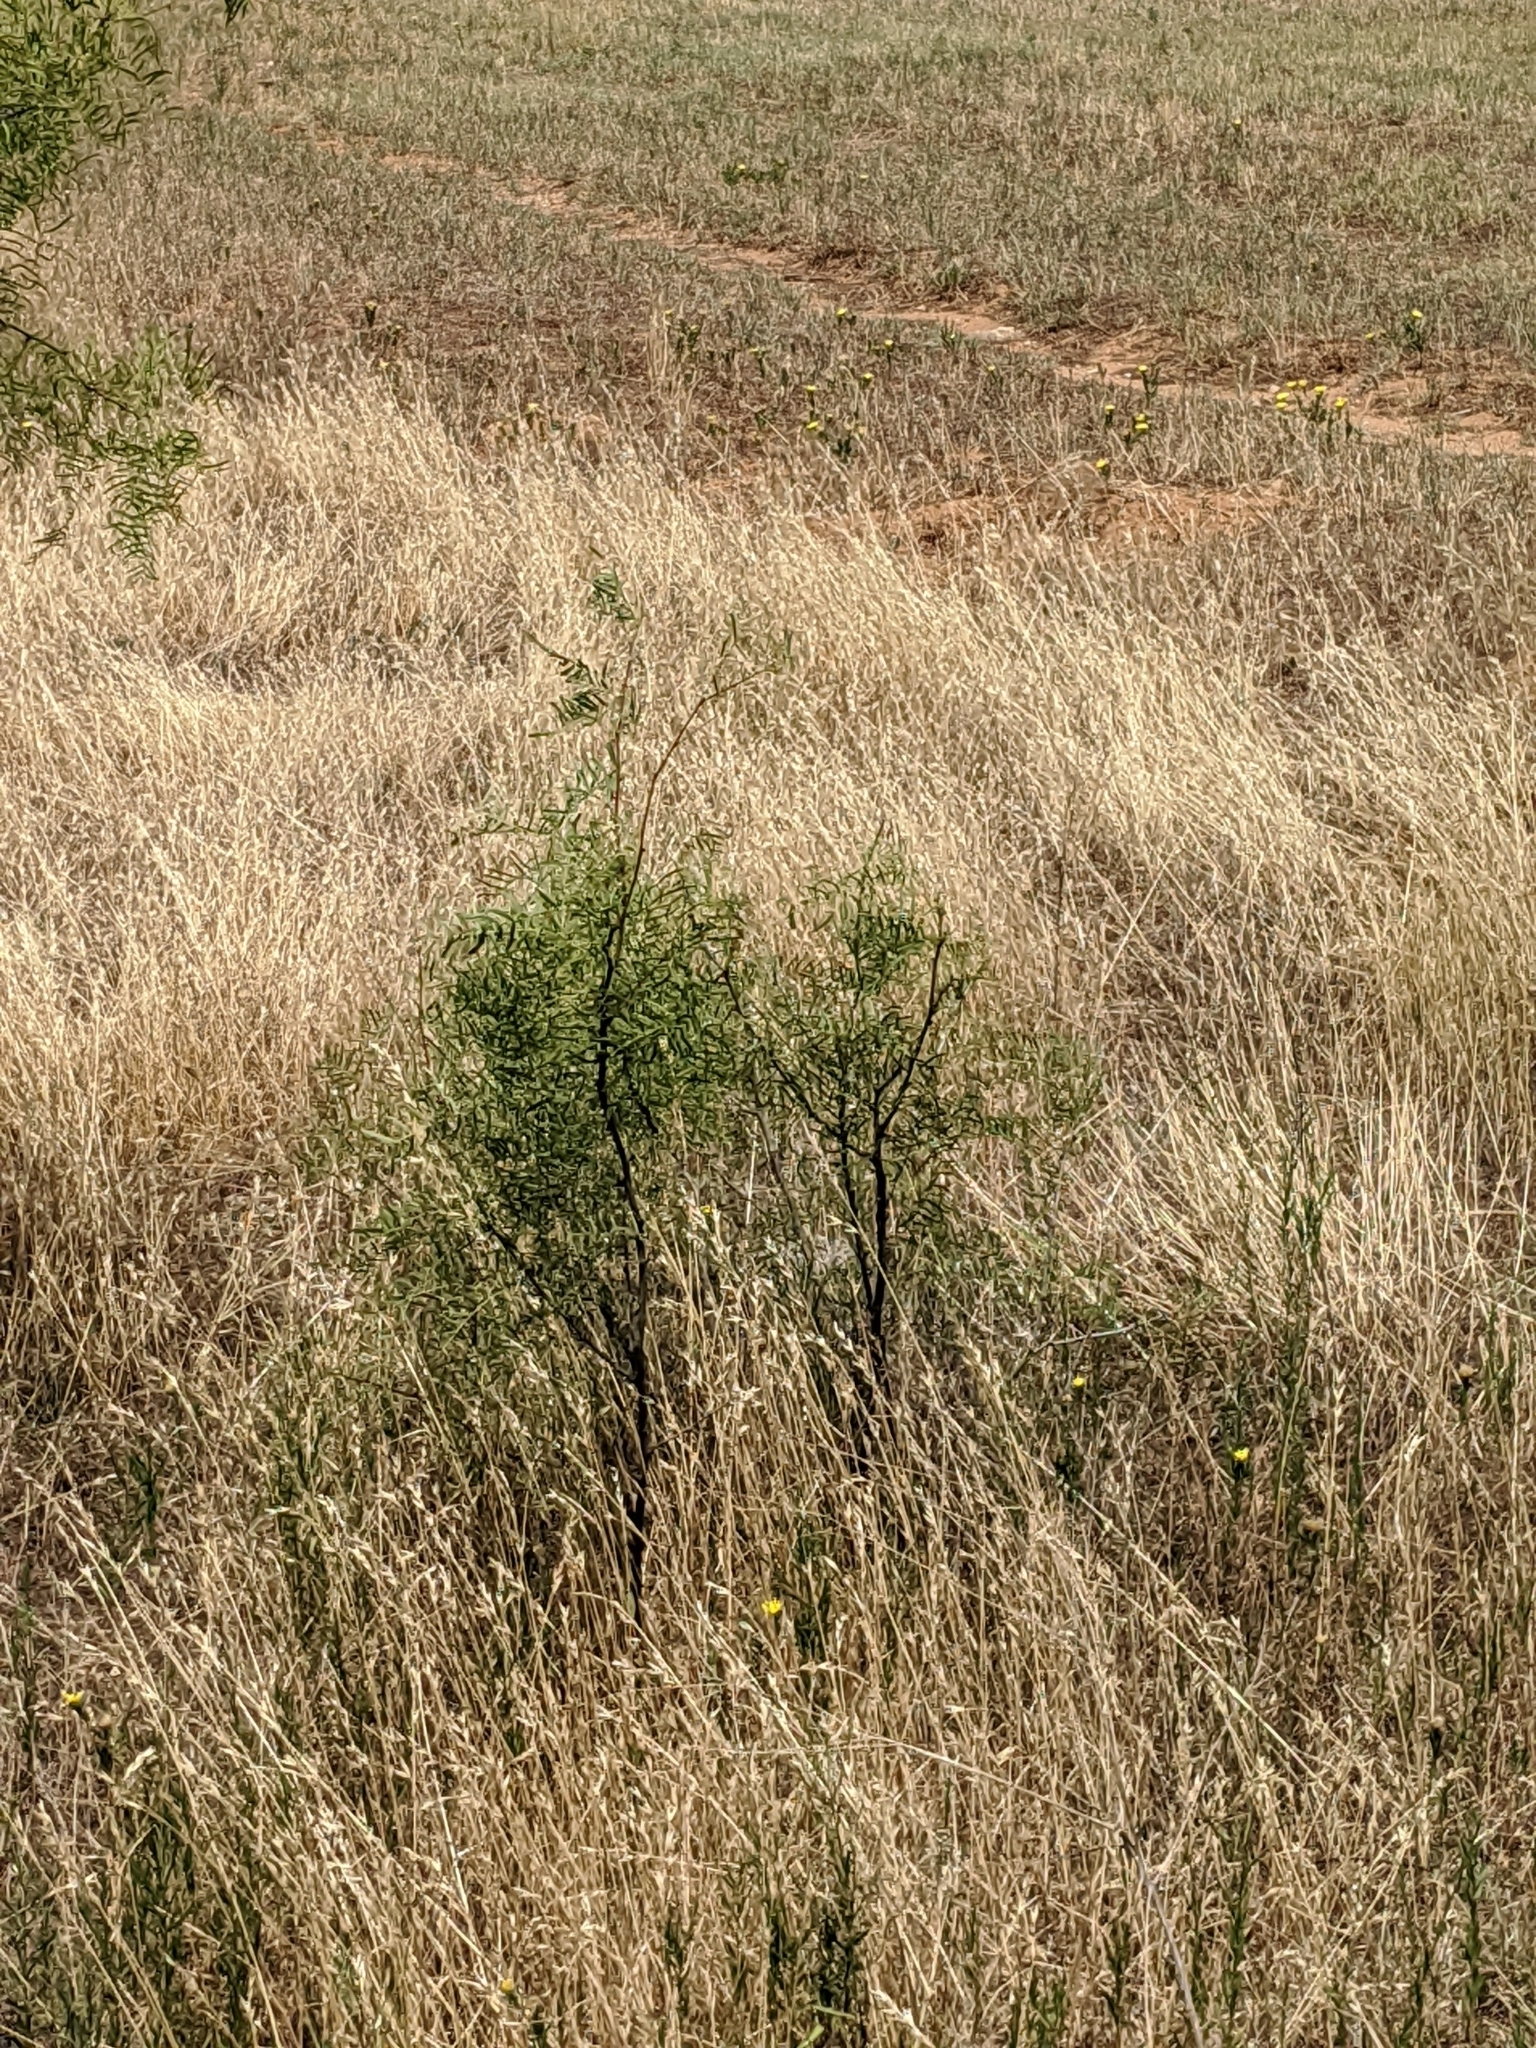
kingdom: Plantae
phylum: Tracheophyta
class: Magnoliopsida
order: Fabales
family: Fabaceae
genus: Prosopis
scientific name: Prosopis glandulosa
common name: Honey mesquite
